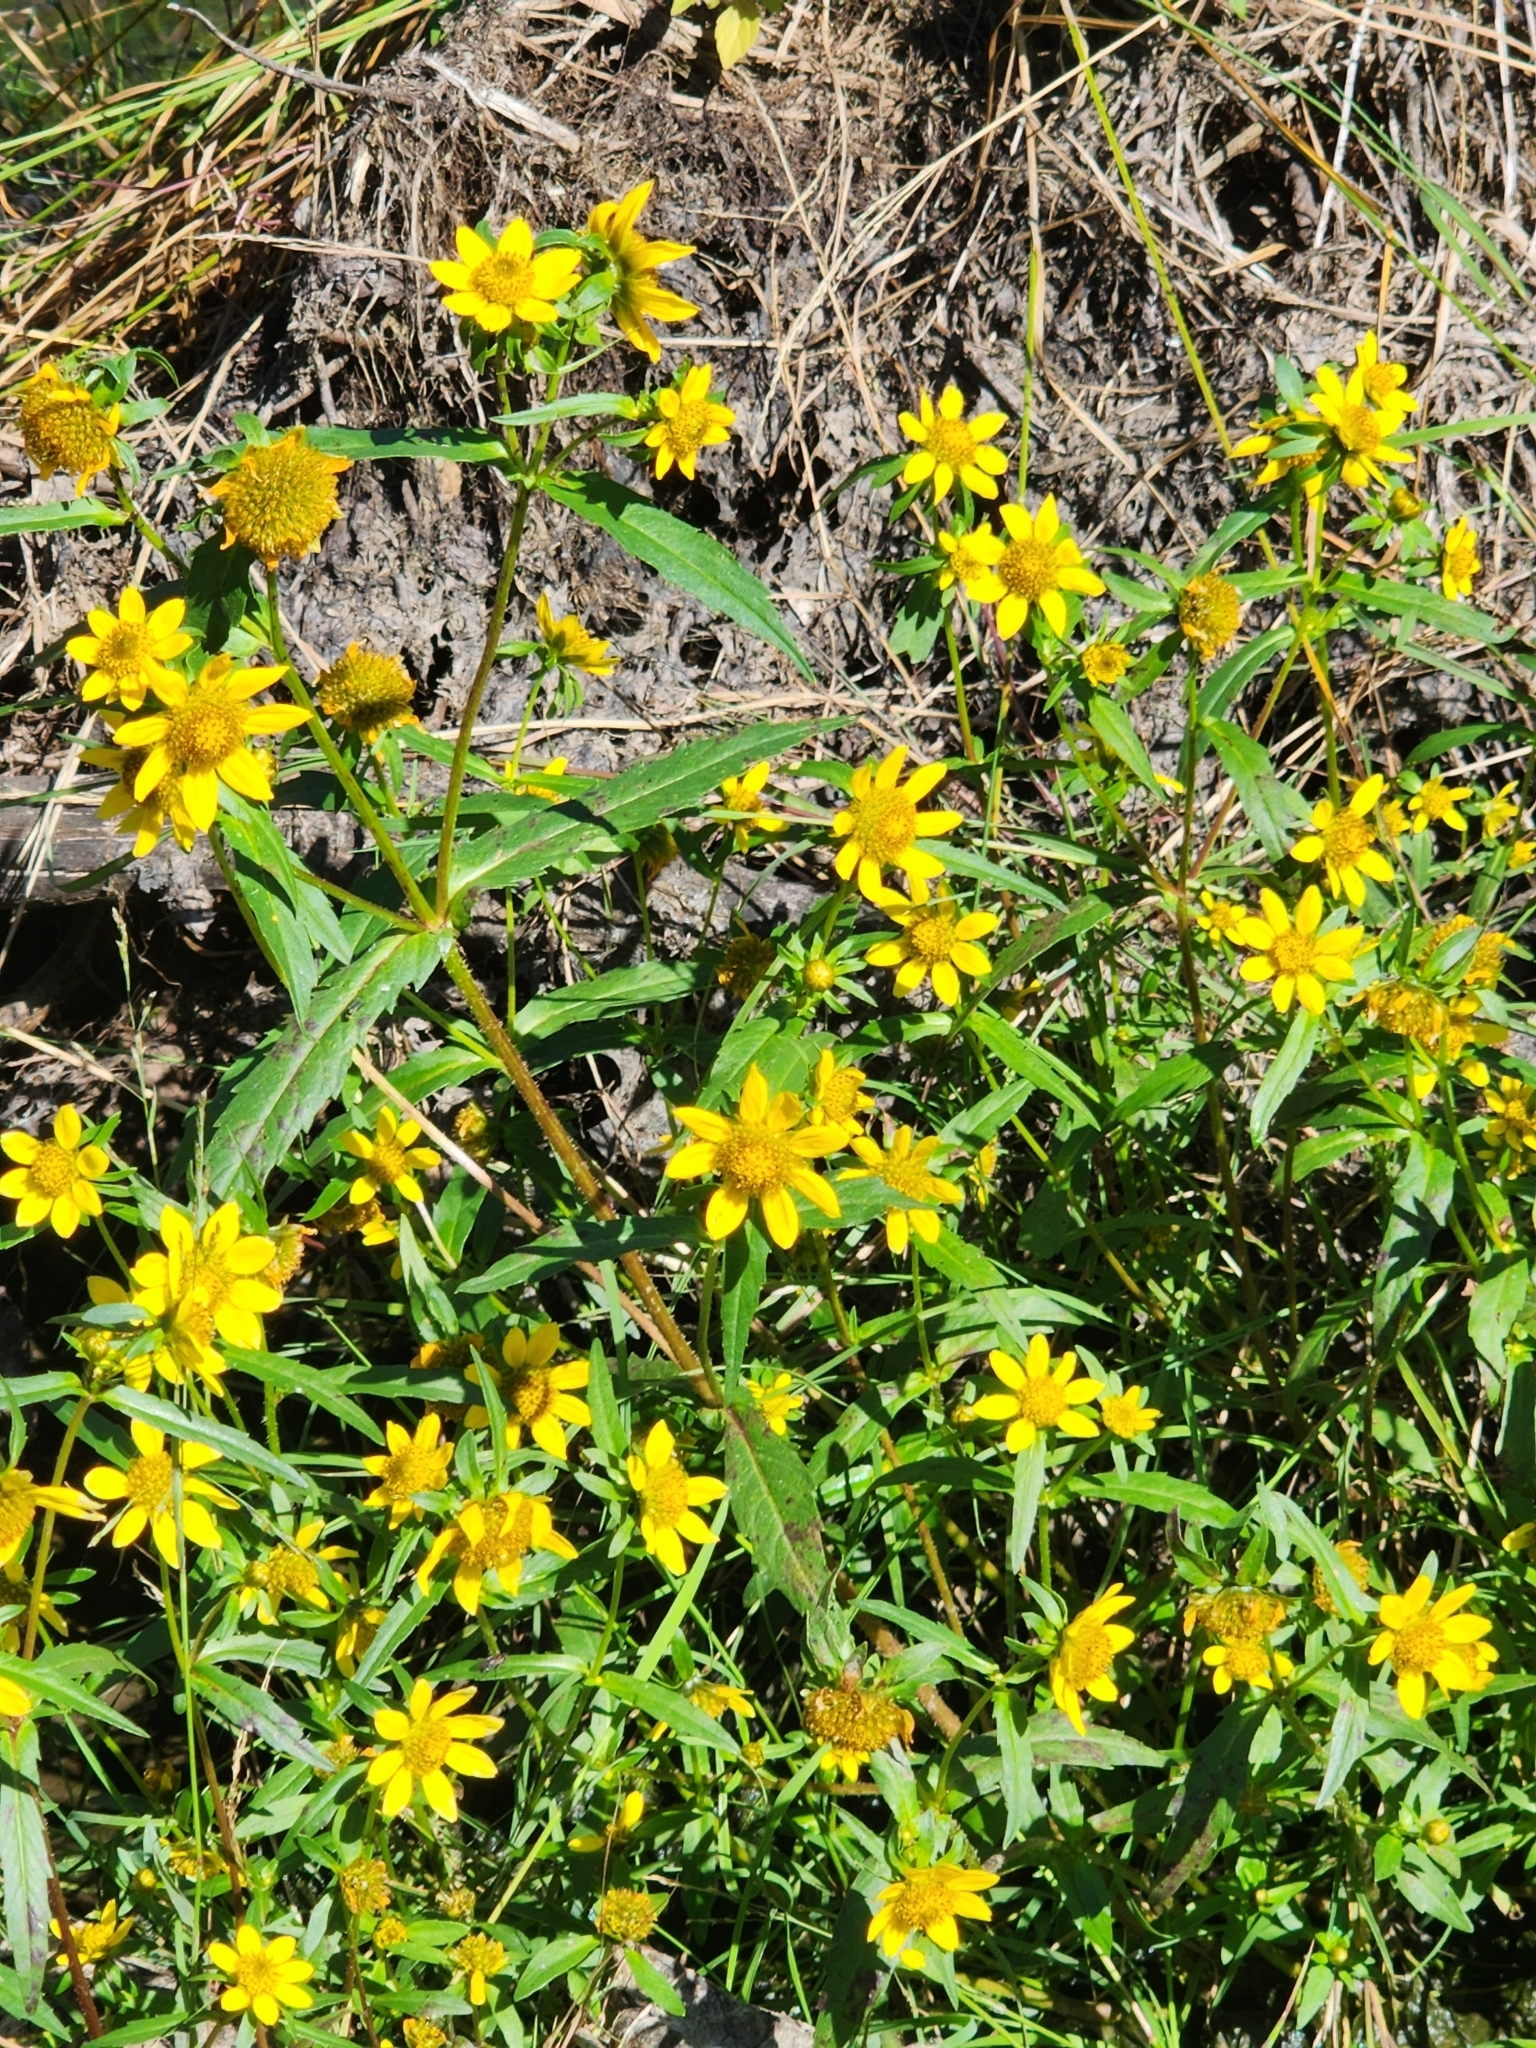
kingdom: Plantae
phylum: Tracheophyta
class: Magnoliopsida
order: Asterales
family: Asteraceae
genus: Bidens
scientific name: Bidens cernua
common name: Nodding bur-marigold
